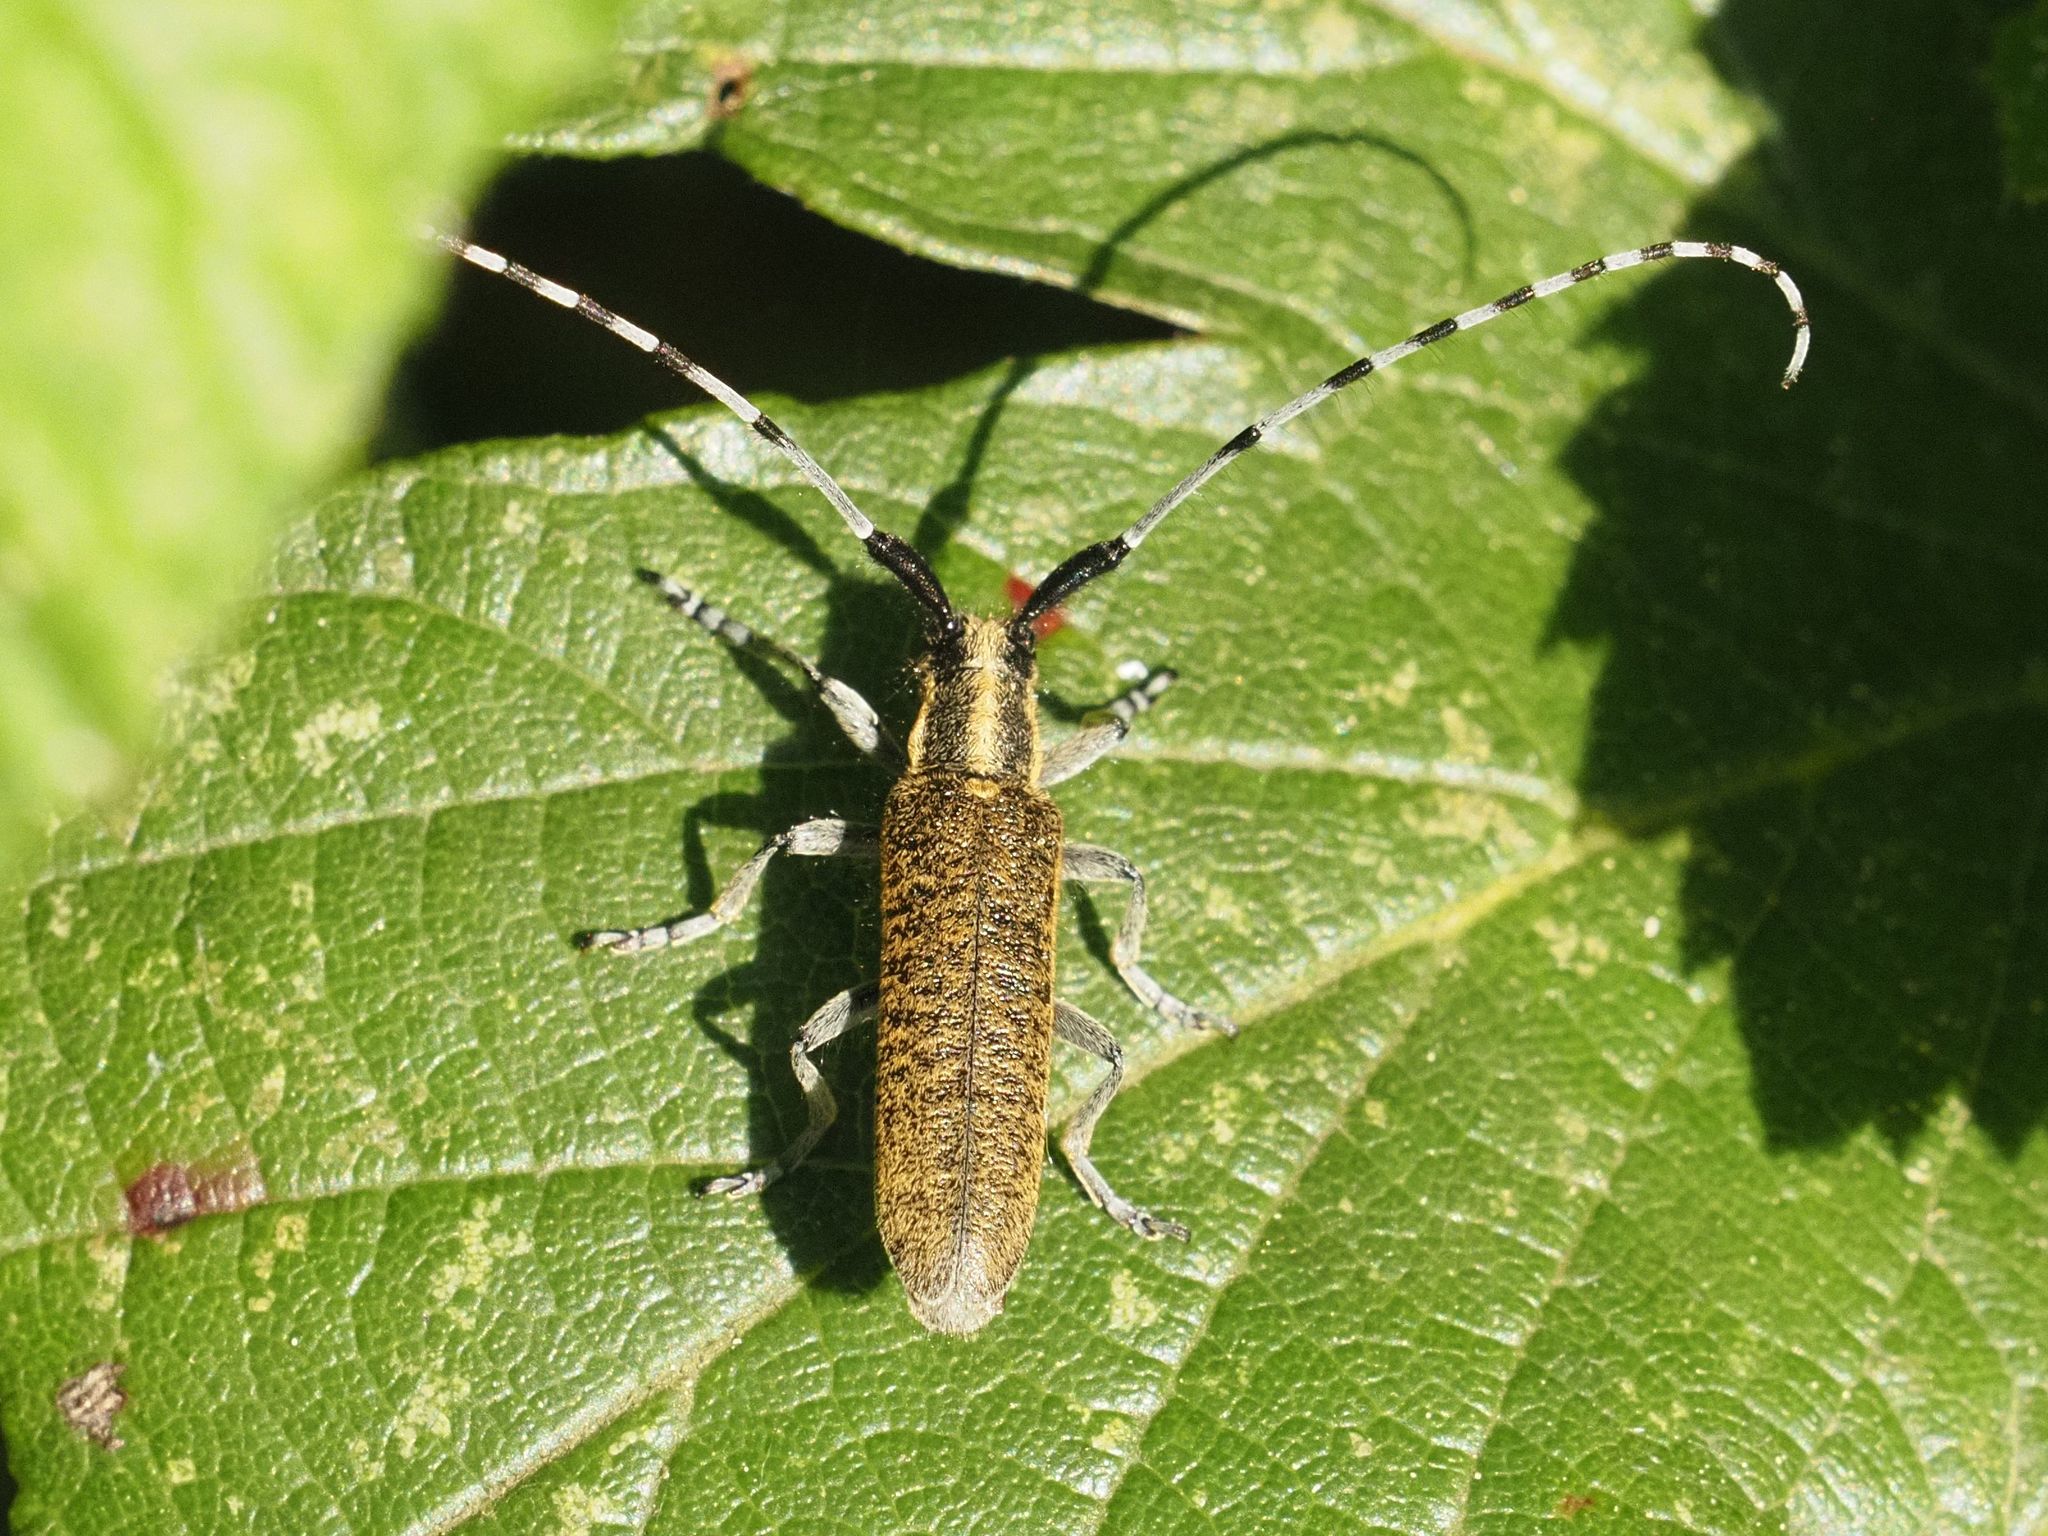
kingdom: Animalia
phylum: Arthropoda
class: Insecta
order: Coleoptera
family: Cerambycidae
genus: Agapanthia
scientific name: Agapanthia villosoviridescens
